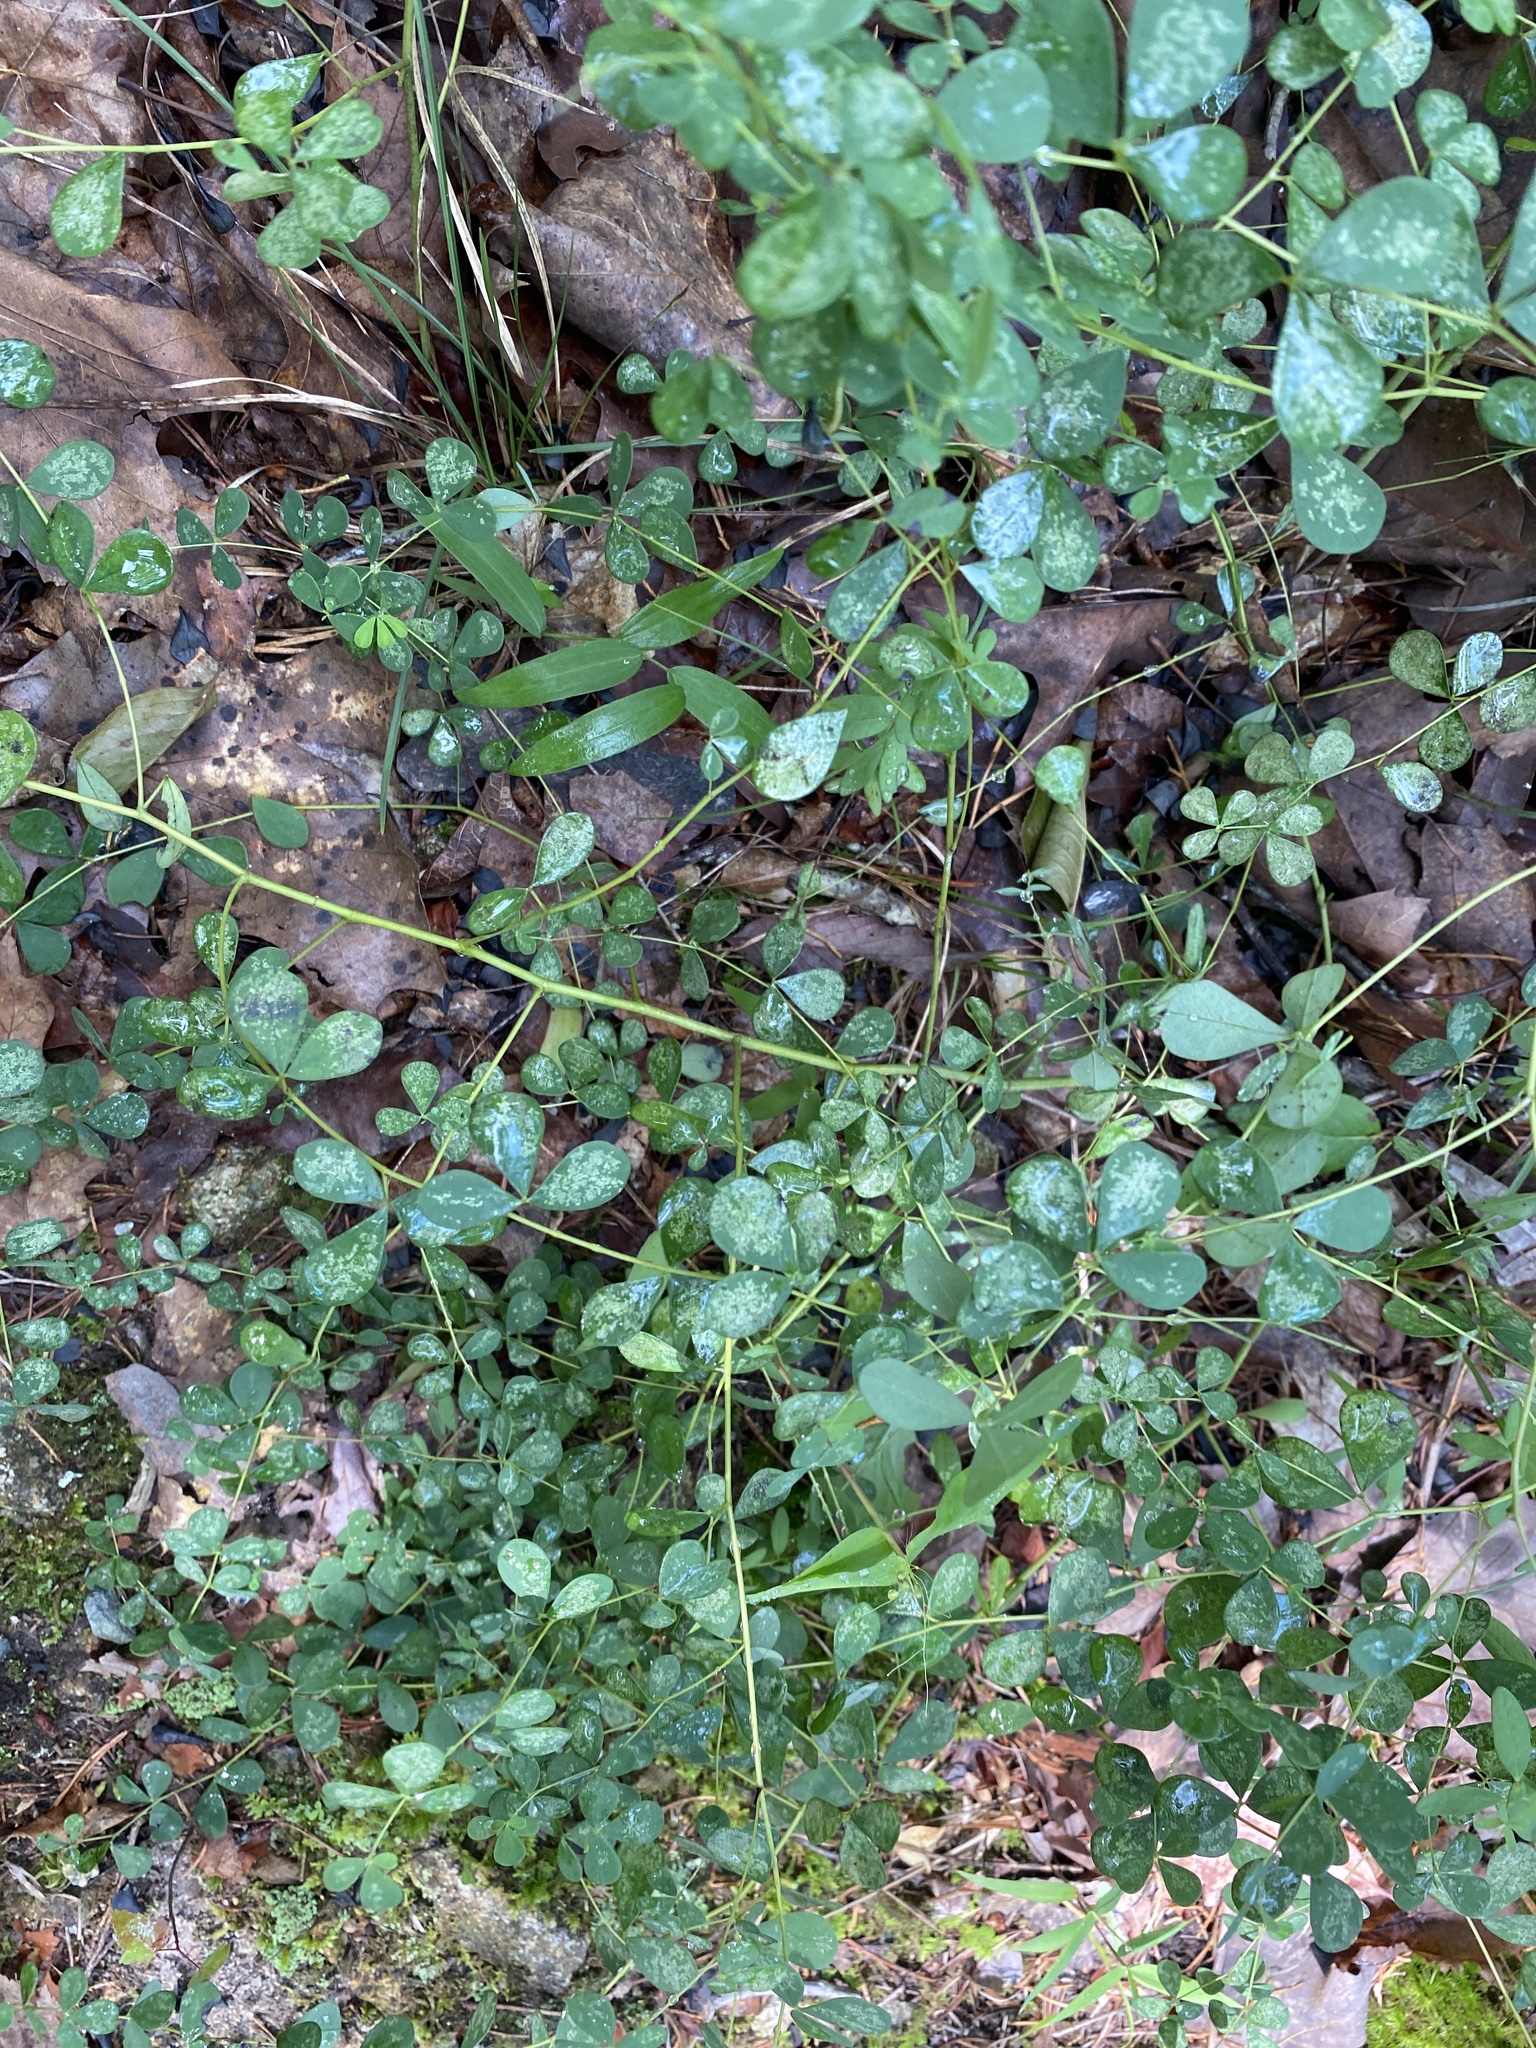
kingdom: Plantae
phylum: Tracheophyta
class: Magnoliopsida
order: Fabales
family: Fabaceae
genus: Baptisia
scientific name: Baptisia tinctoria
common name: Wild indigo
